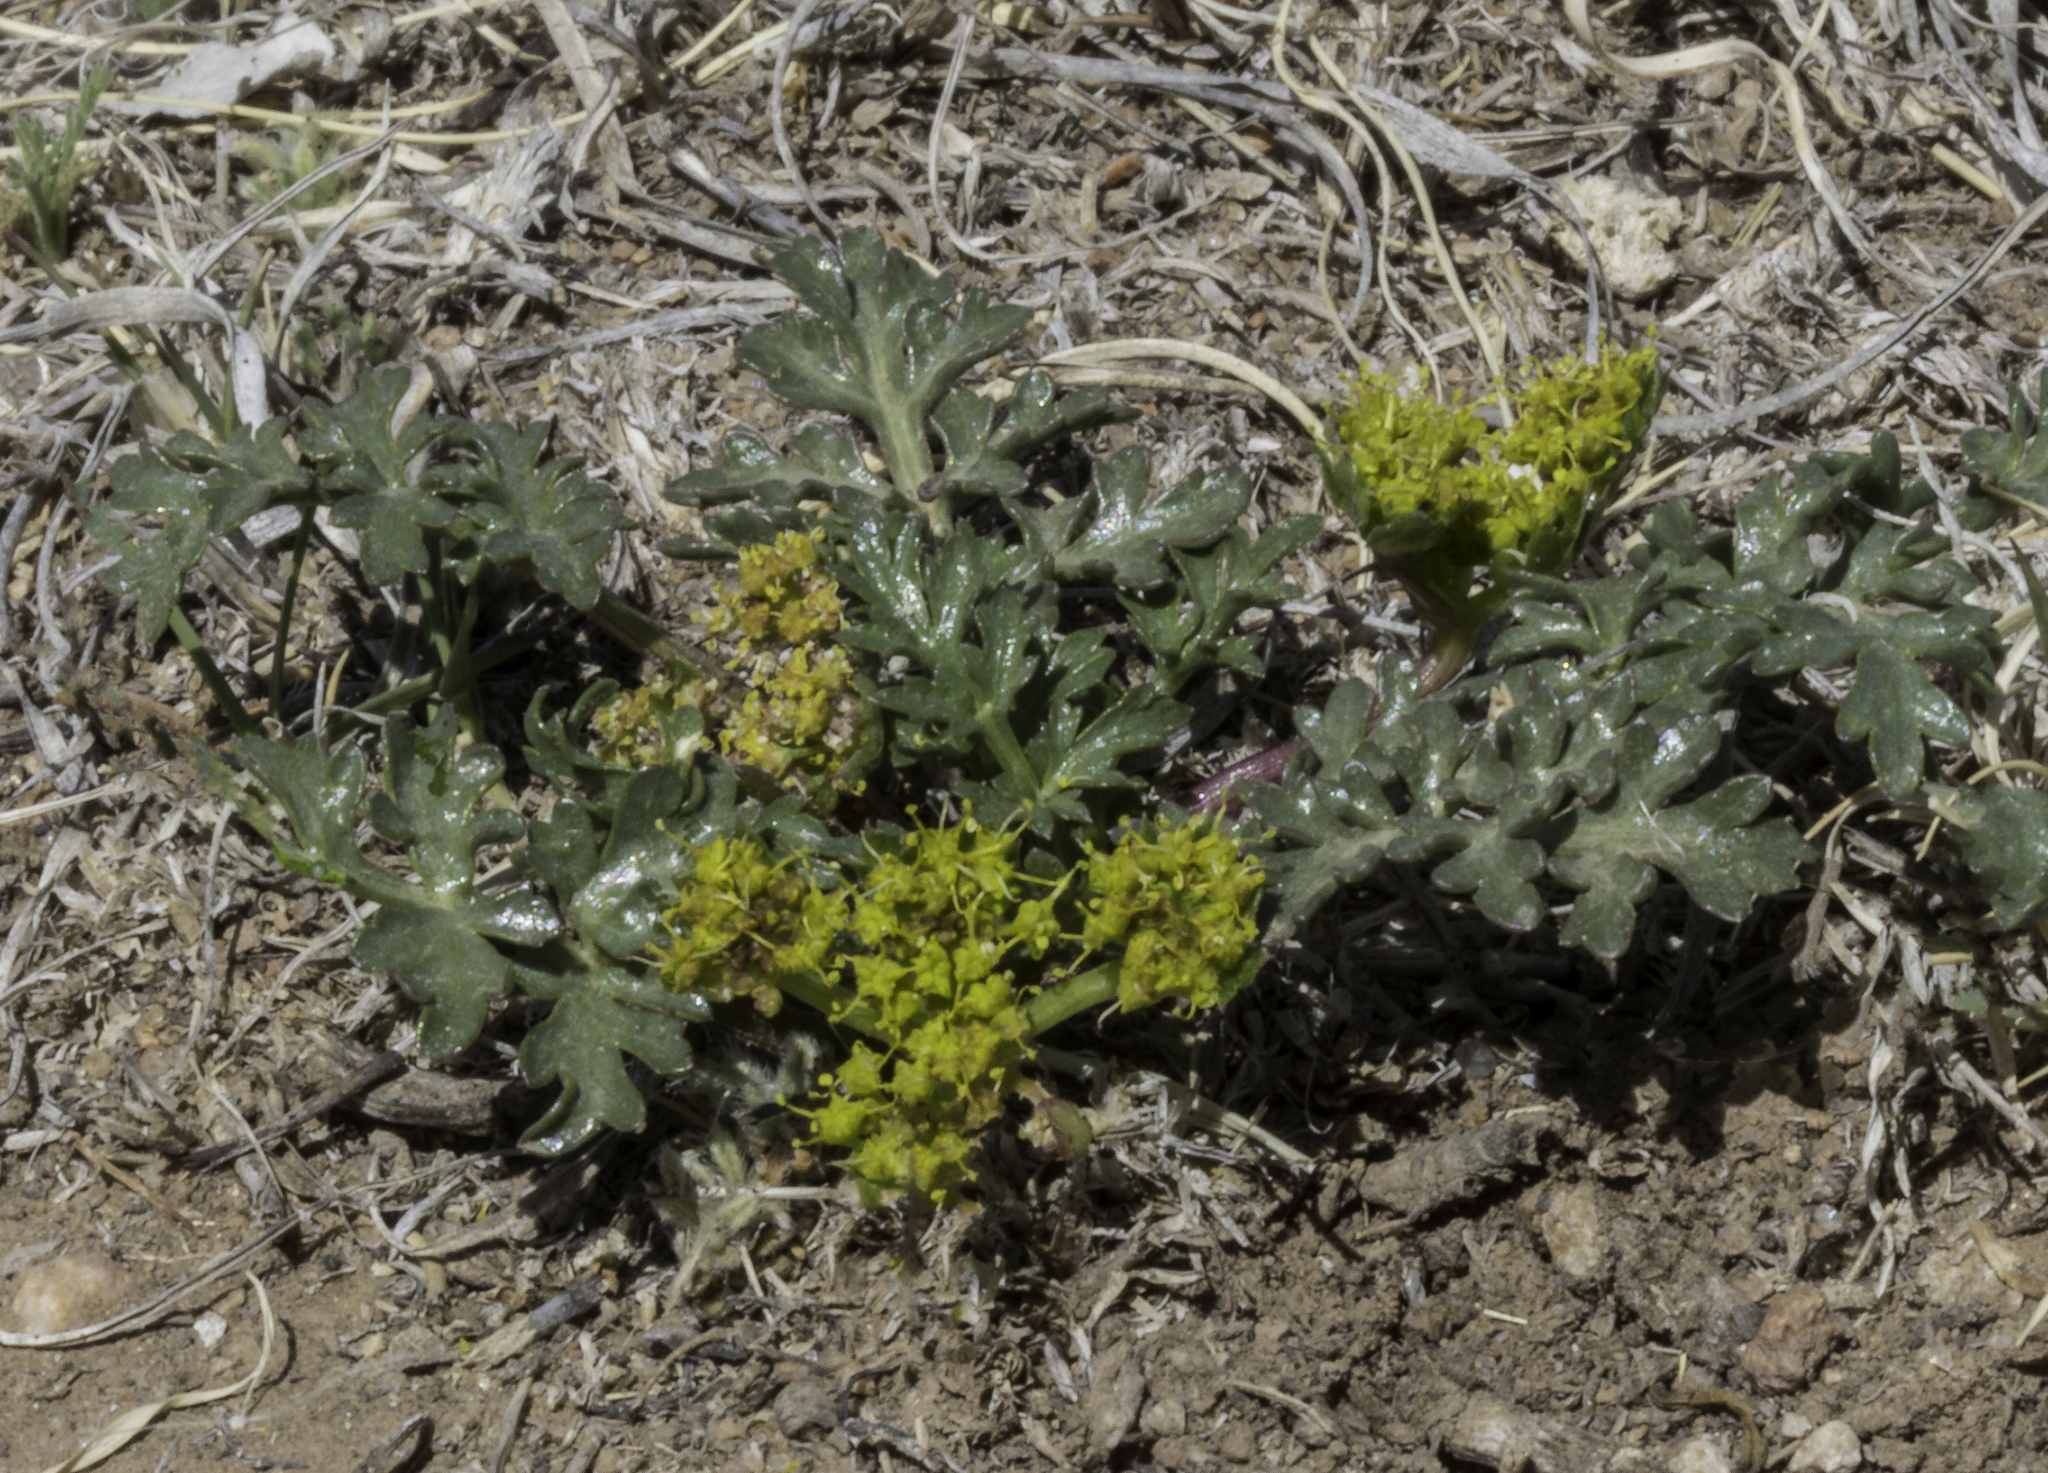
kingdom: Plantae
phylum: Tracheophyta
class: Magnoliopsida
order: Apiales
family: Apiaceae
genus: Cymopterus
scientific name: Cymopterus glomeratus
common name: Plains spring parsley
